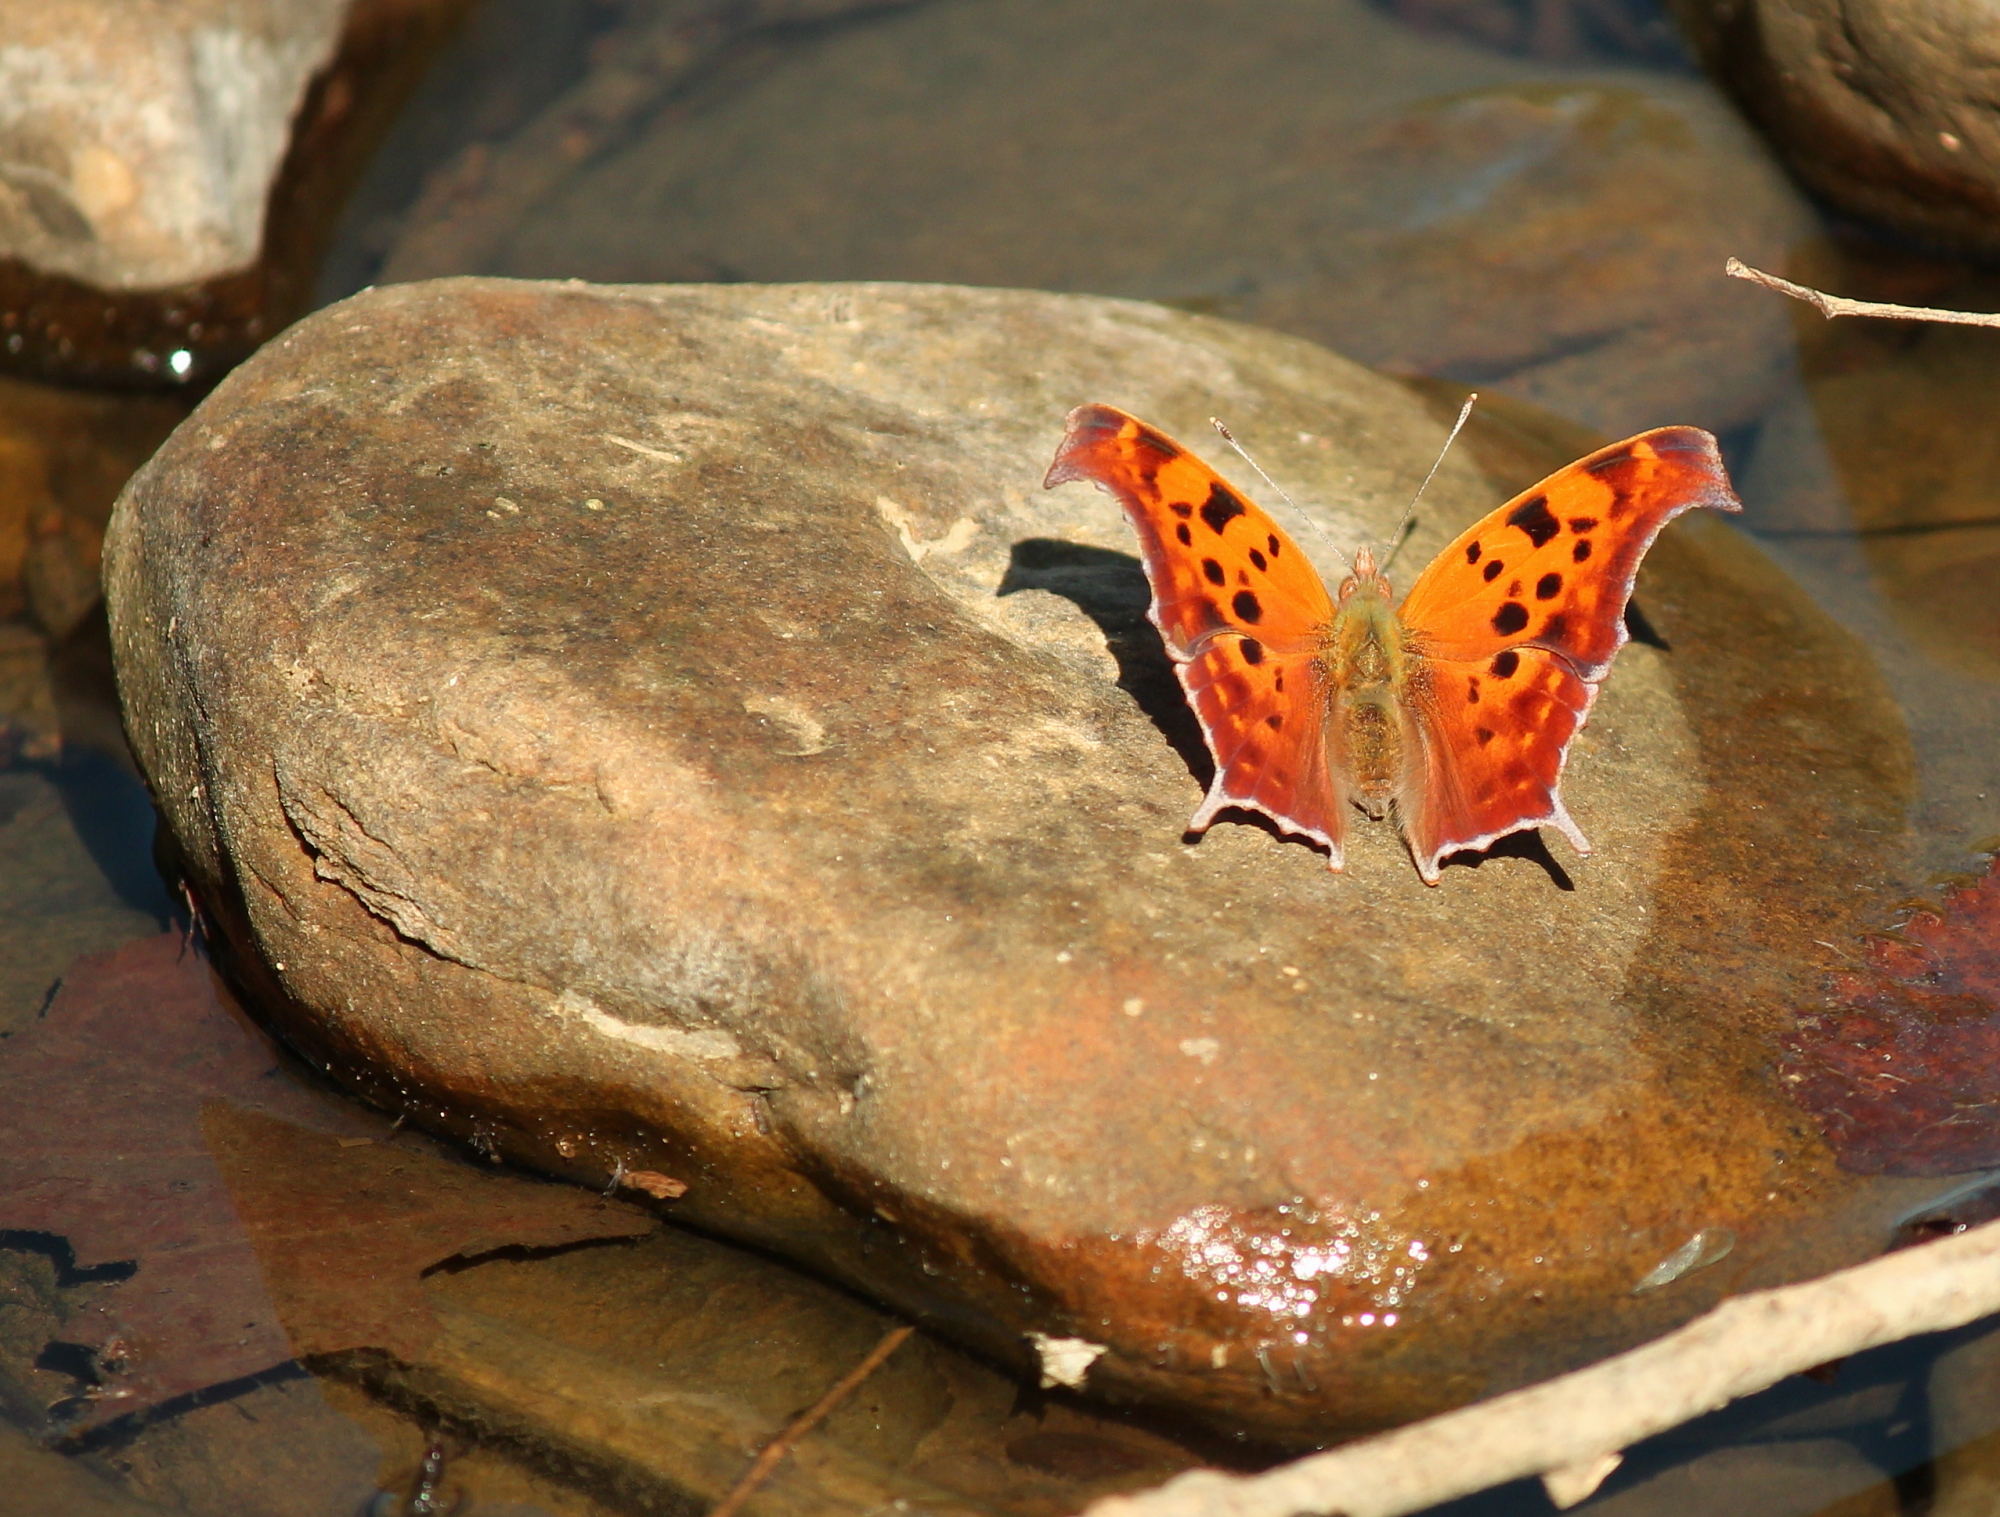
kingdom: Animalia
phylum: Arthropoda
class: Insecta
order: Lepidoptera
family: Nymphalidae
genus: Polygonia
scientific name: Polygonia interrogationis
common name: Question mark
